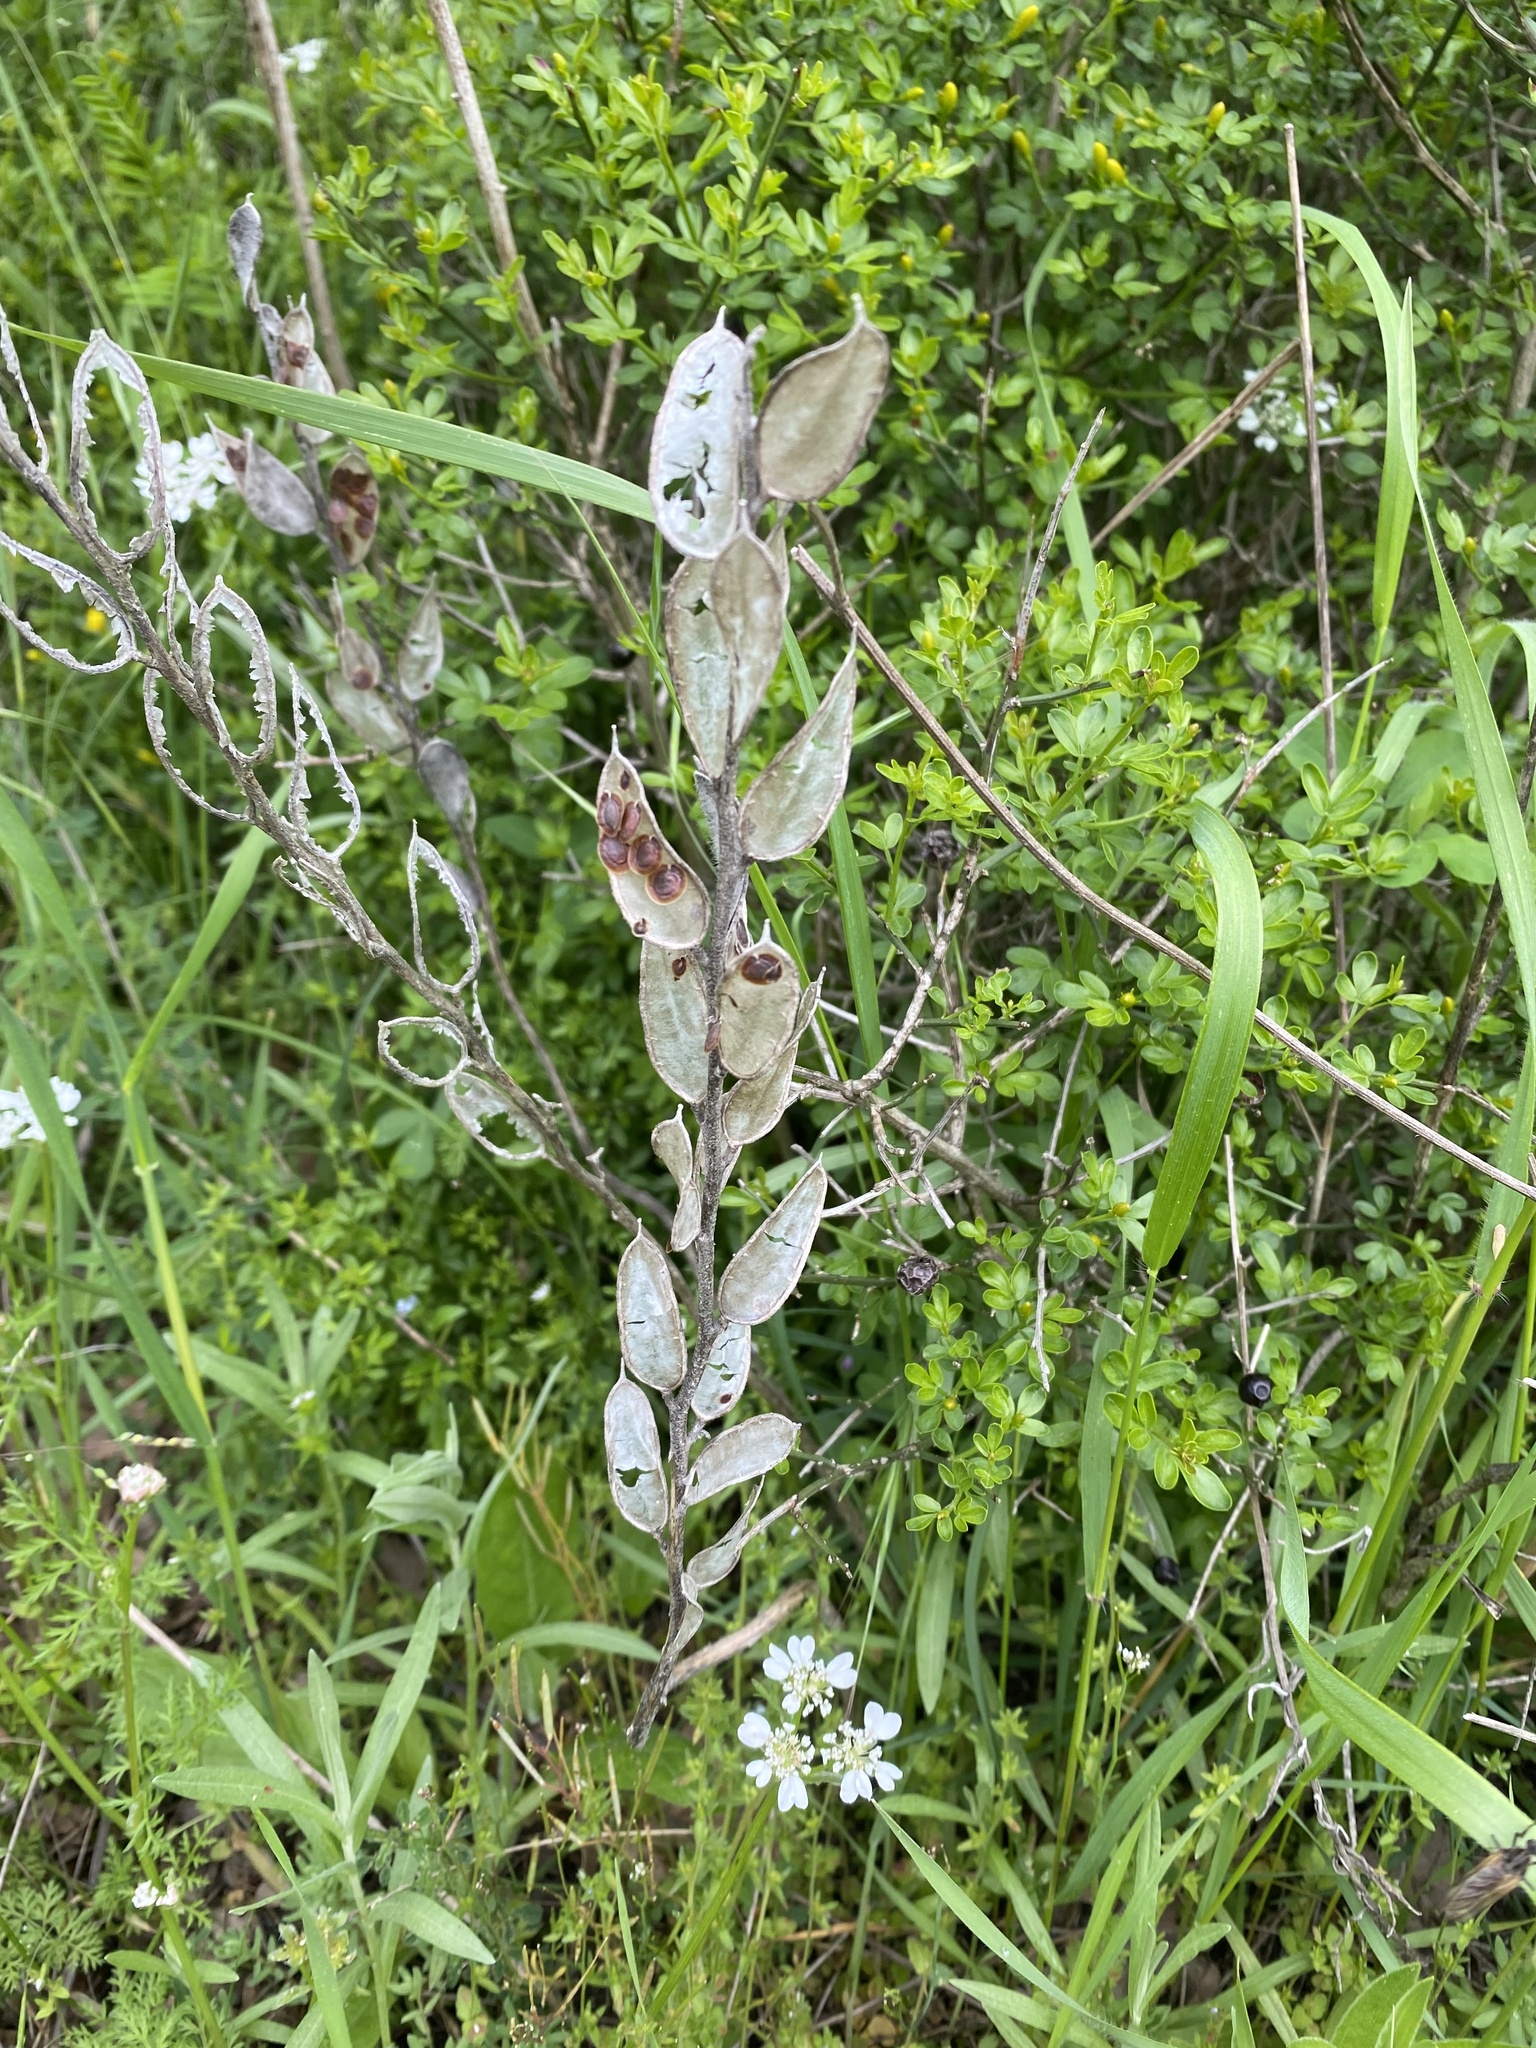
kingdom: Plantae
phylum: Tracheophyta
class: Magnoliopsida
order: Brassicales
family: Brassicaceae
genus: Fibigia
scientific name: Fibigia clypeata
